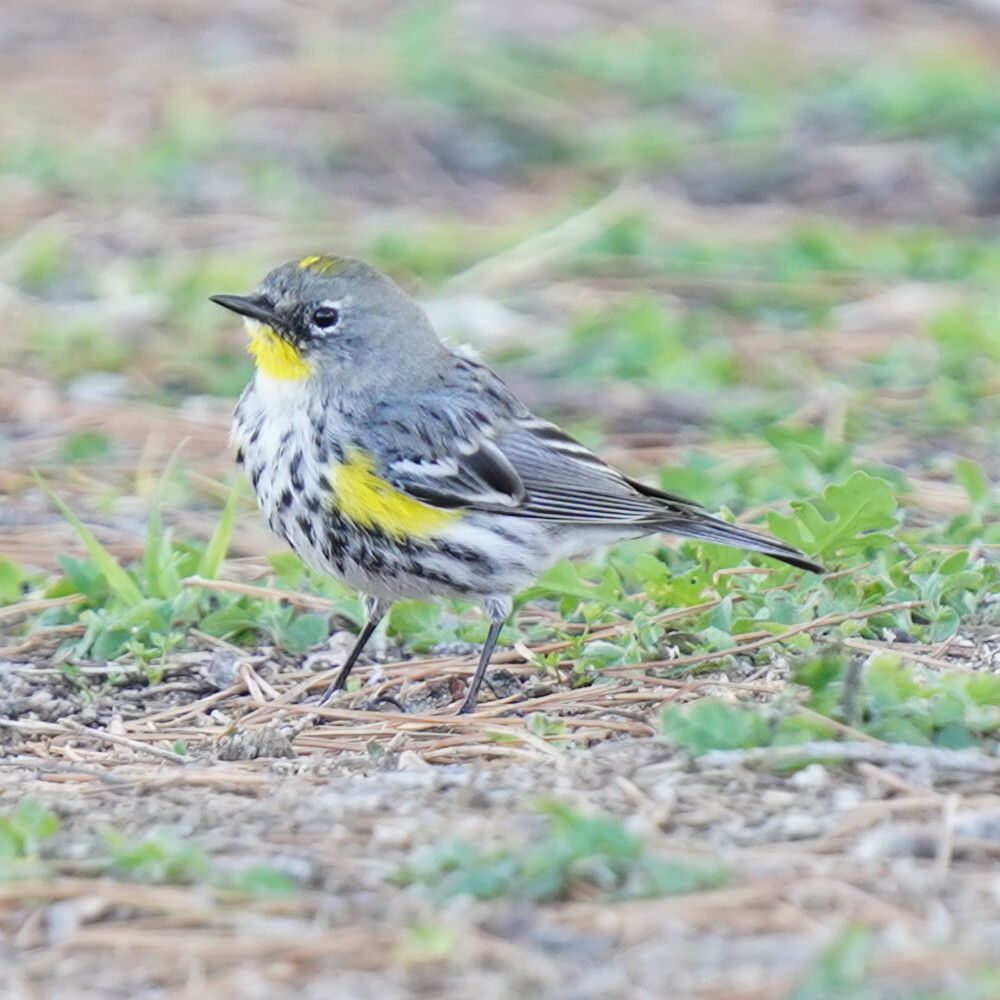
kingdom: Animalia
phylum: Chordata
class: Aves
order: Passeriformes
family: Parulidae
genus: Setophaga
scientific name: Setophaga auduboni
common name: Audubon's warbler
